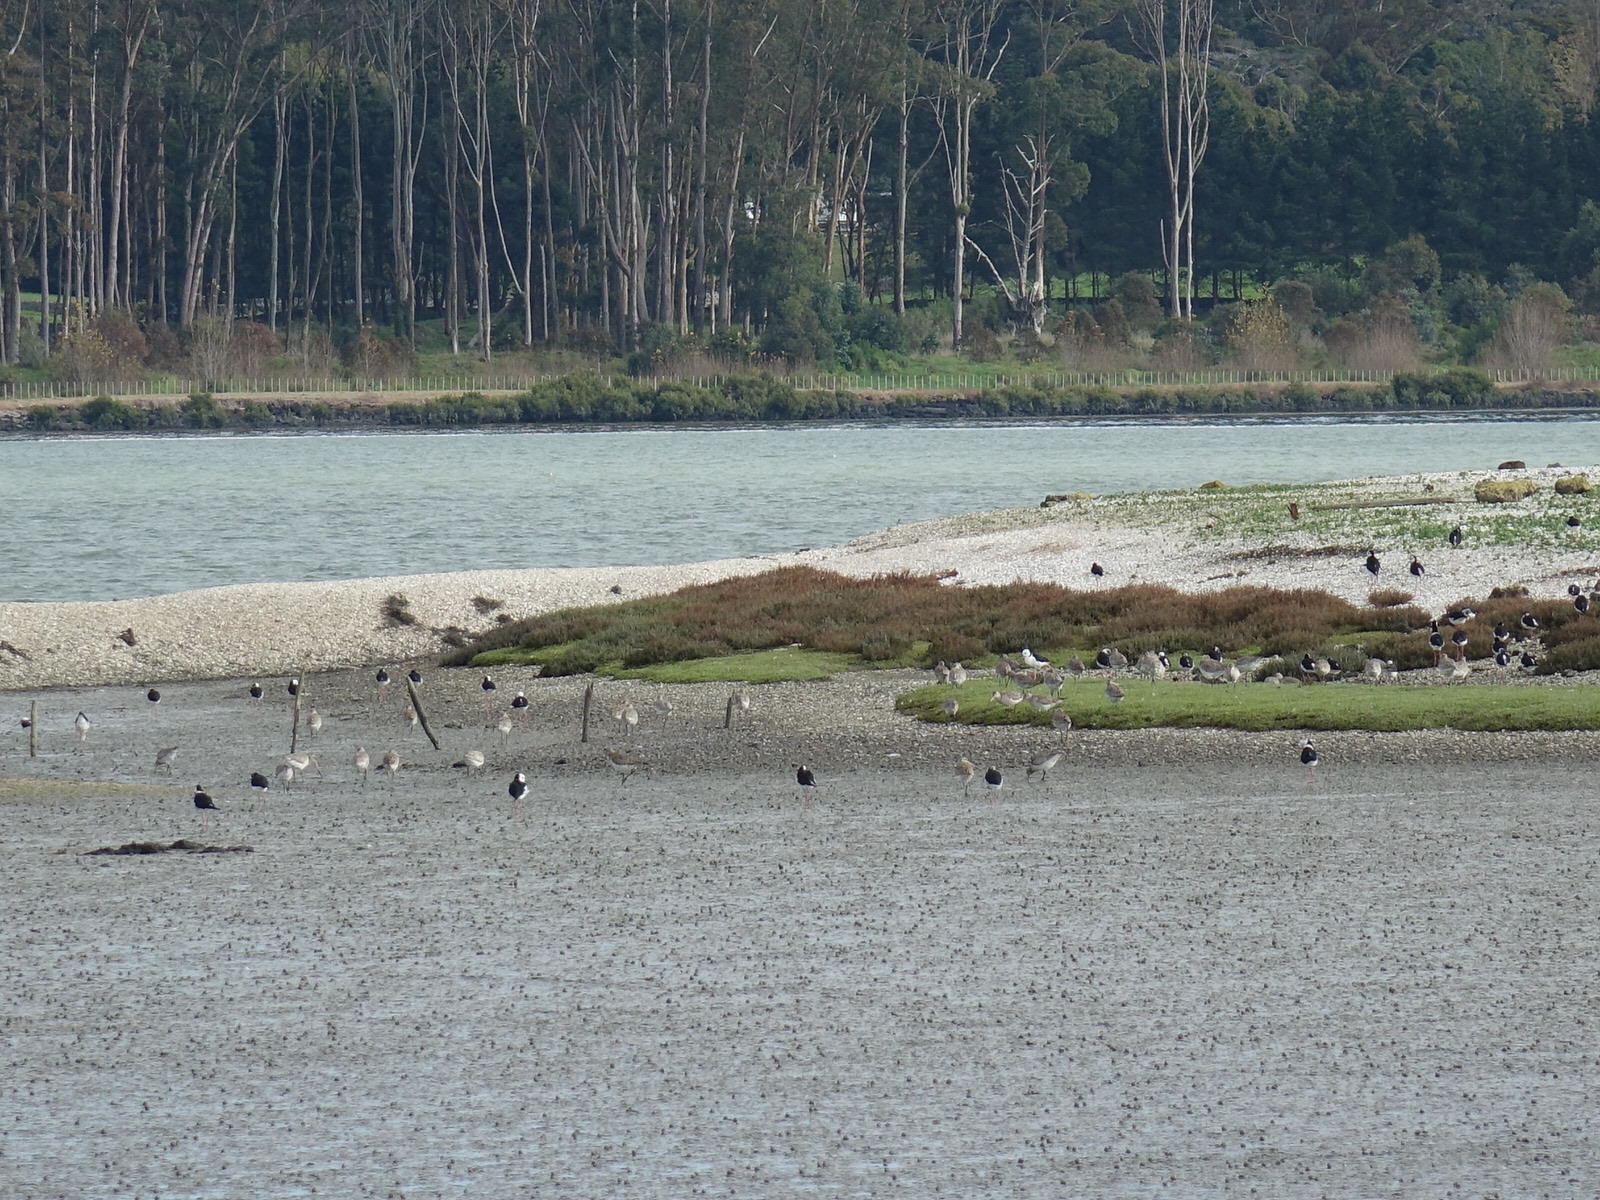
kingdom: Animalia
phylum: Chordata
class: Aves
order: Charadriiformes
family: Scolopacidae
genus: Limosa
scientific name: Limosa lapponica
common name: Bar-tailed godwit
